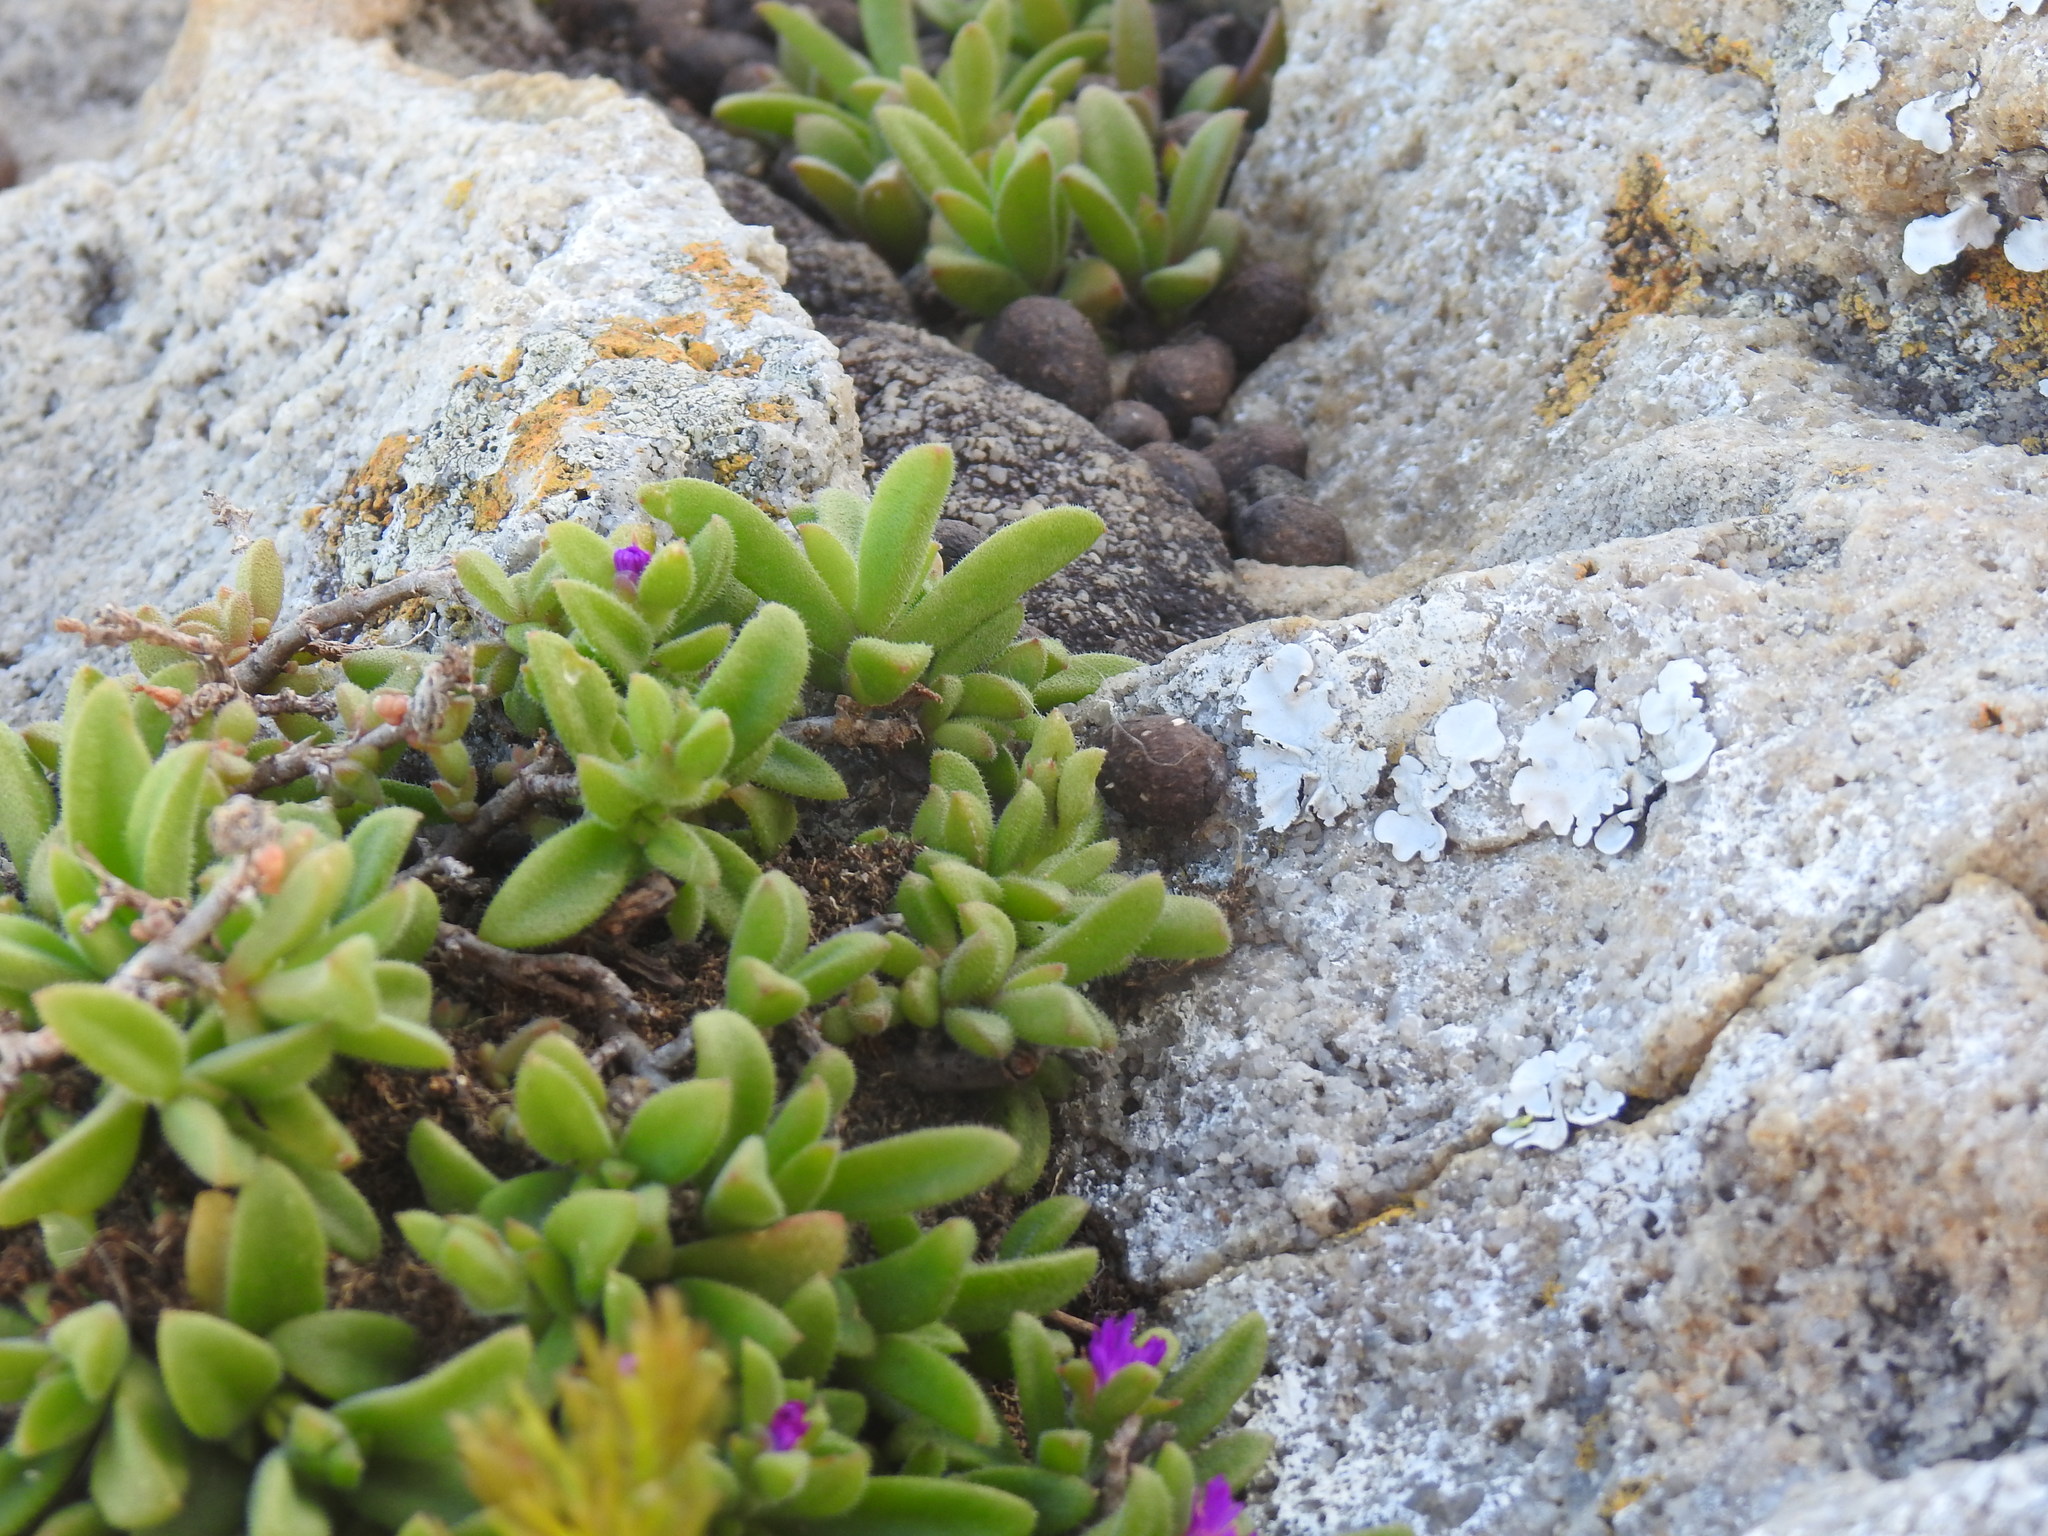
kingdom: Plantae
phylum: Tracheophyta
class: Magnoliopsida
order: Caryophyllales
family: Aizoaceae
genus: Delosperma
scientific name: Delosperma stenandrum
